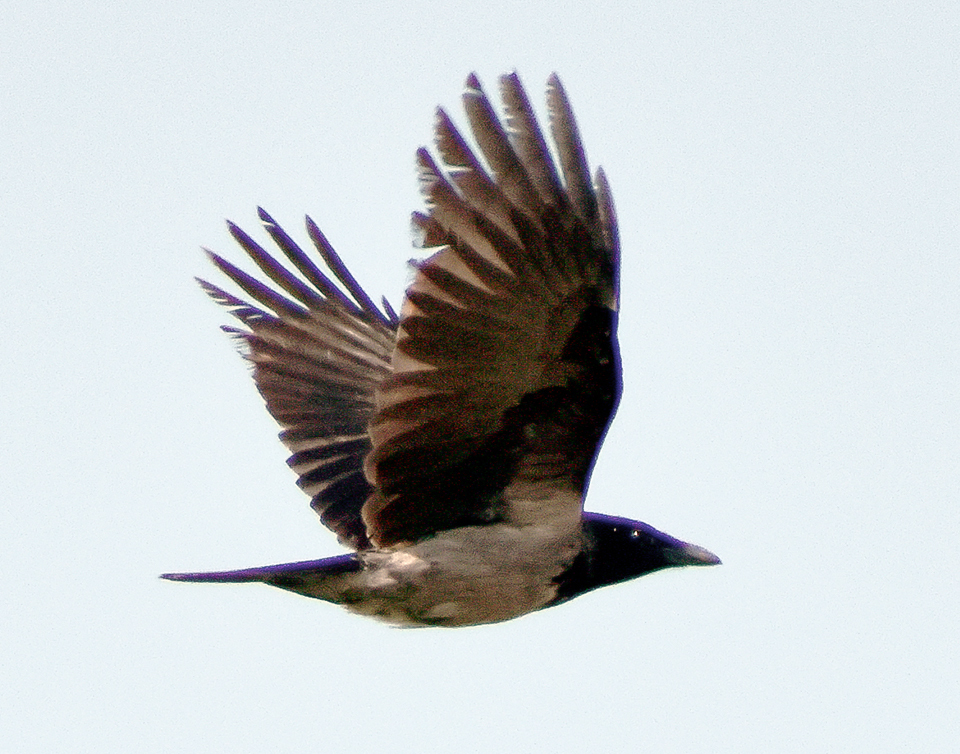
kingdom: Animalia
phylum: Chordata
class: Aves
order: Passeriformes
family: Corvidae
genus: Corvus
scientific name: Corvus cornix
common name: Hooded crow
